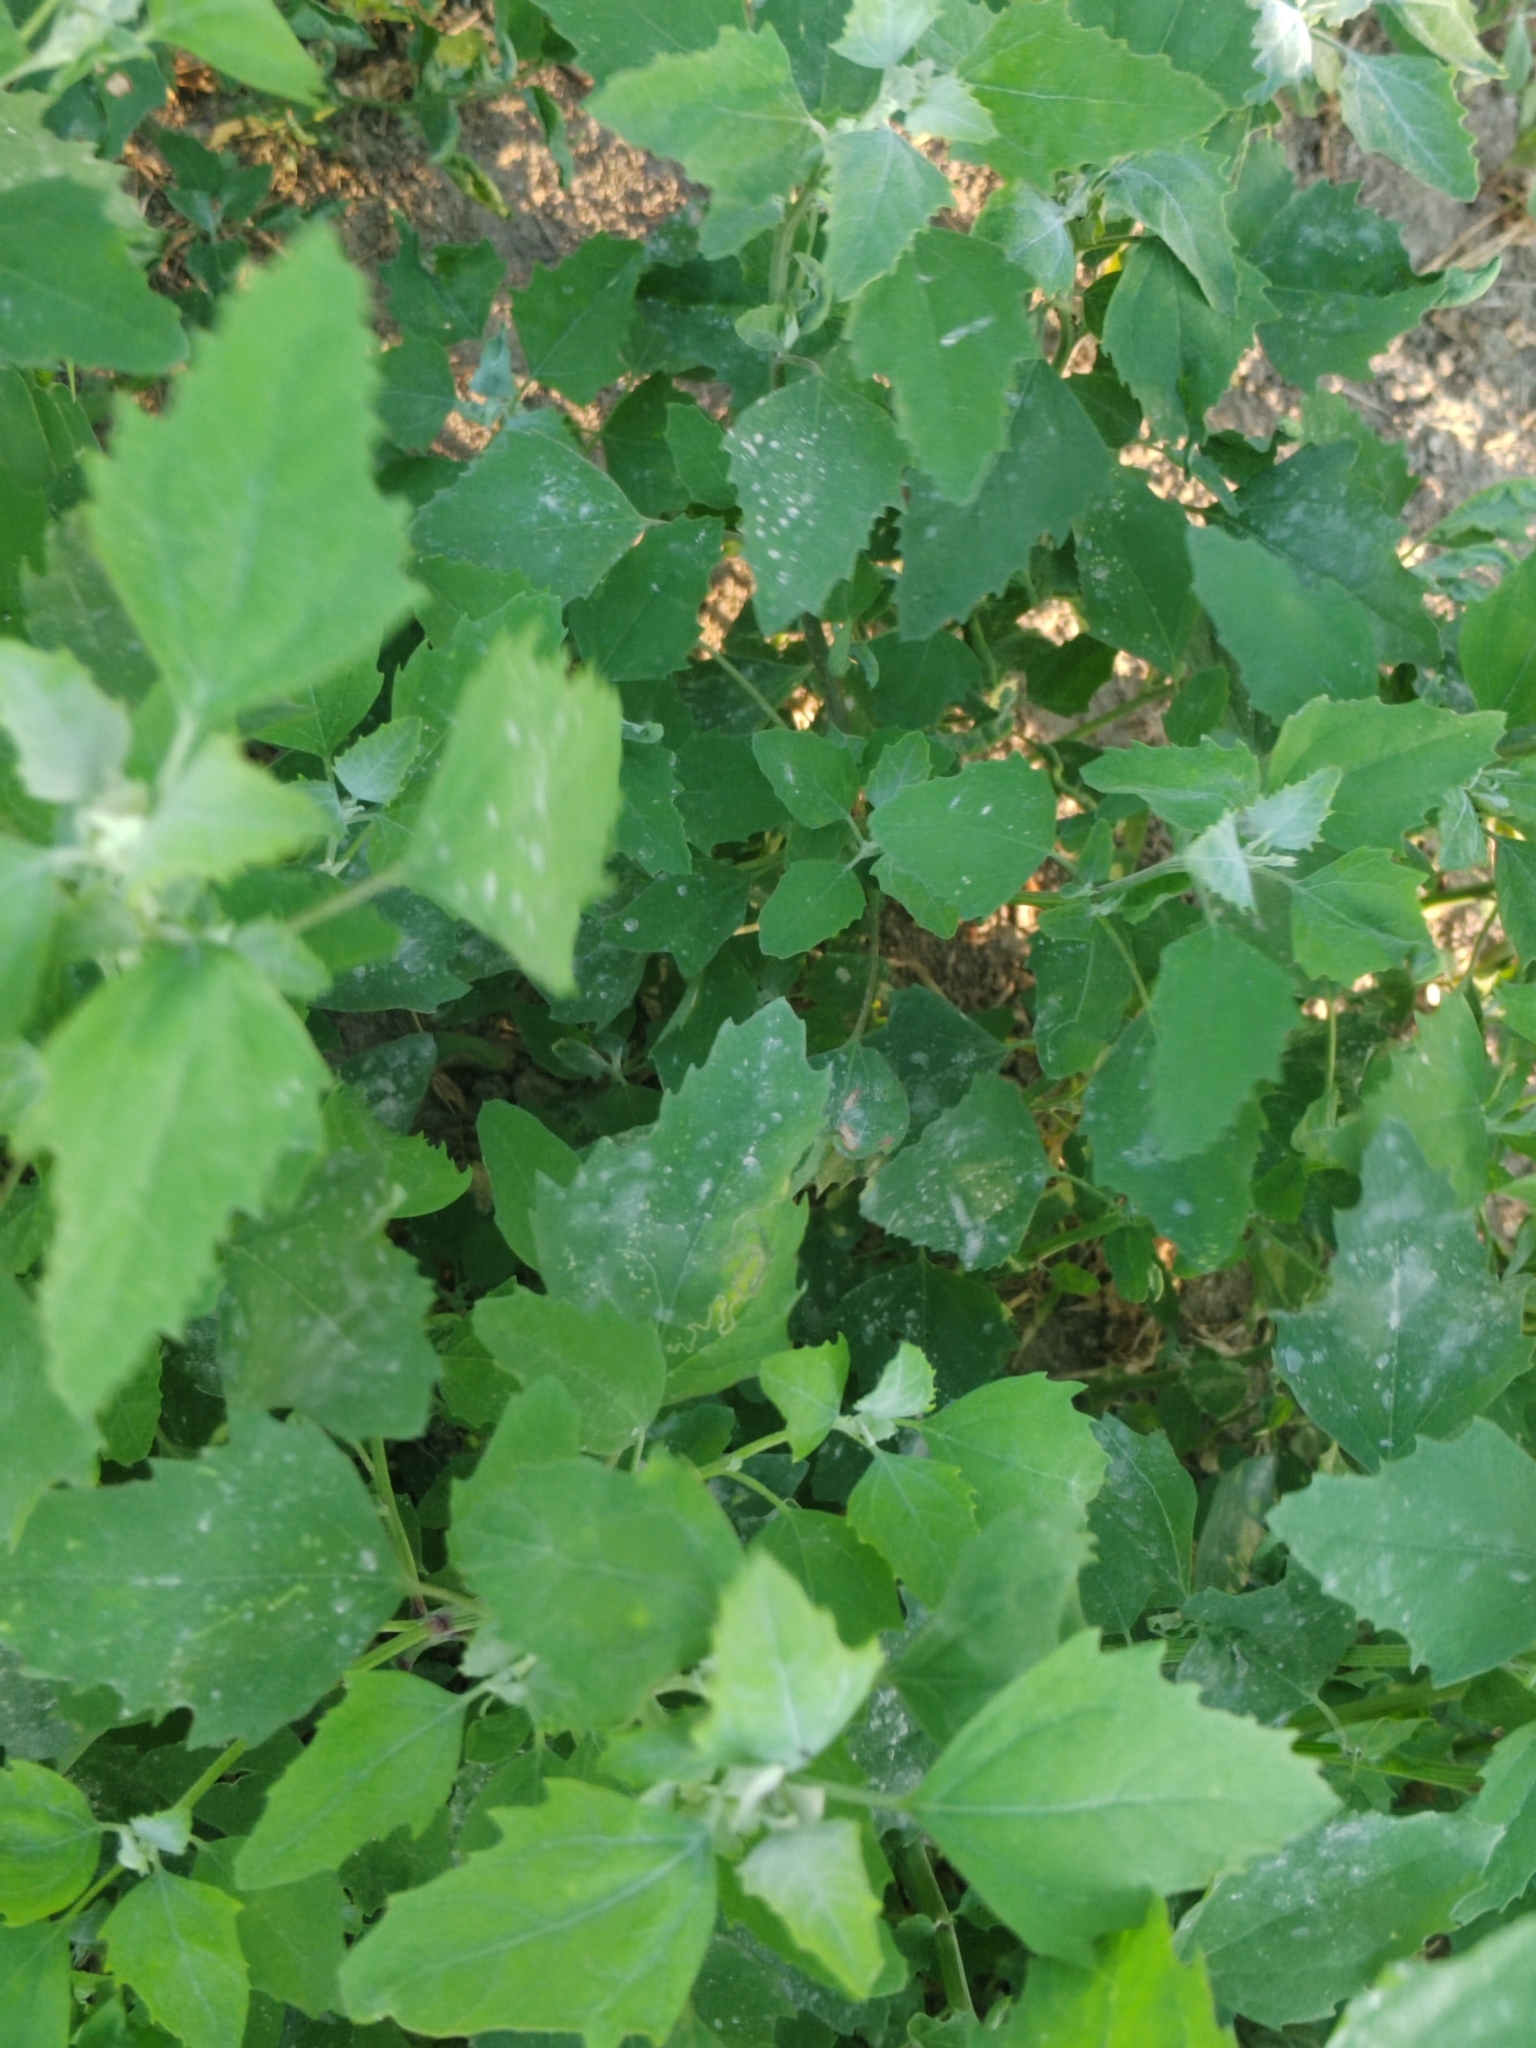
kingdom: Plantae
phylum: Tracheophyta
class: Magnoliopsida
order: Caryophyllales
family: Amaranthaceae
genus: Chenopodium
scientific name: Chenopodium album
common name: Fat-hen
